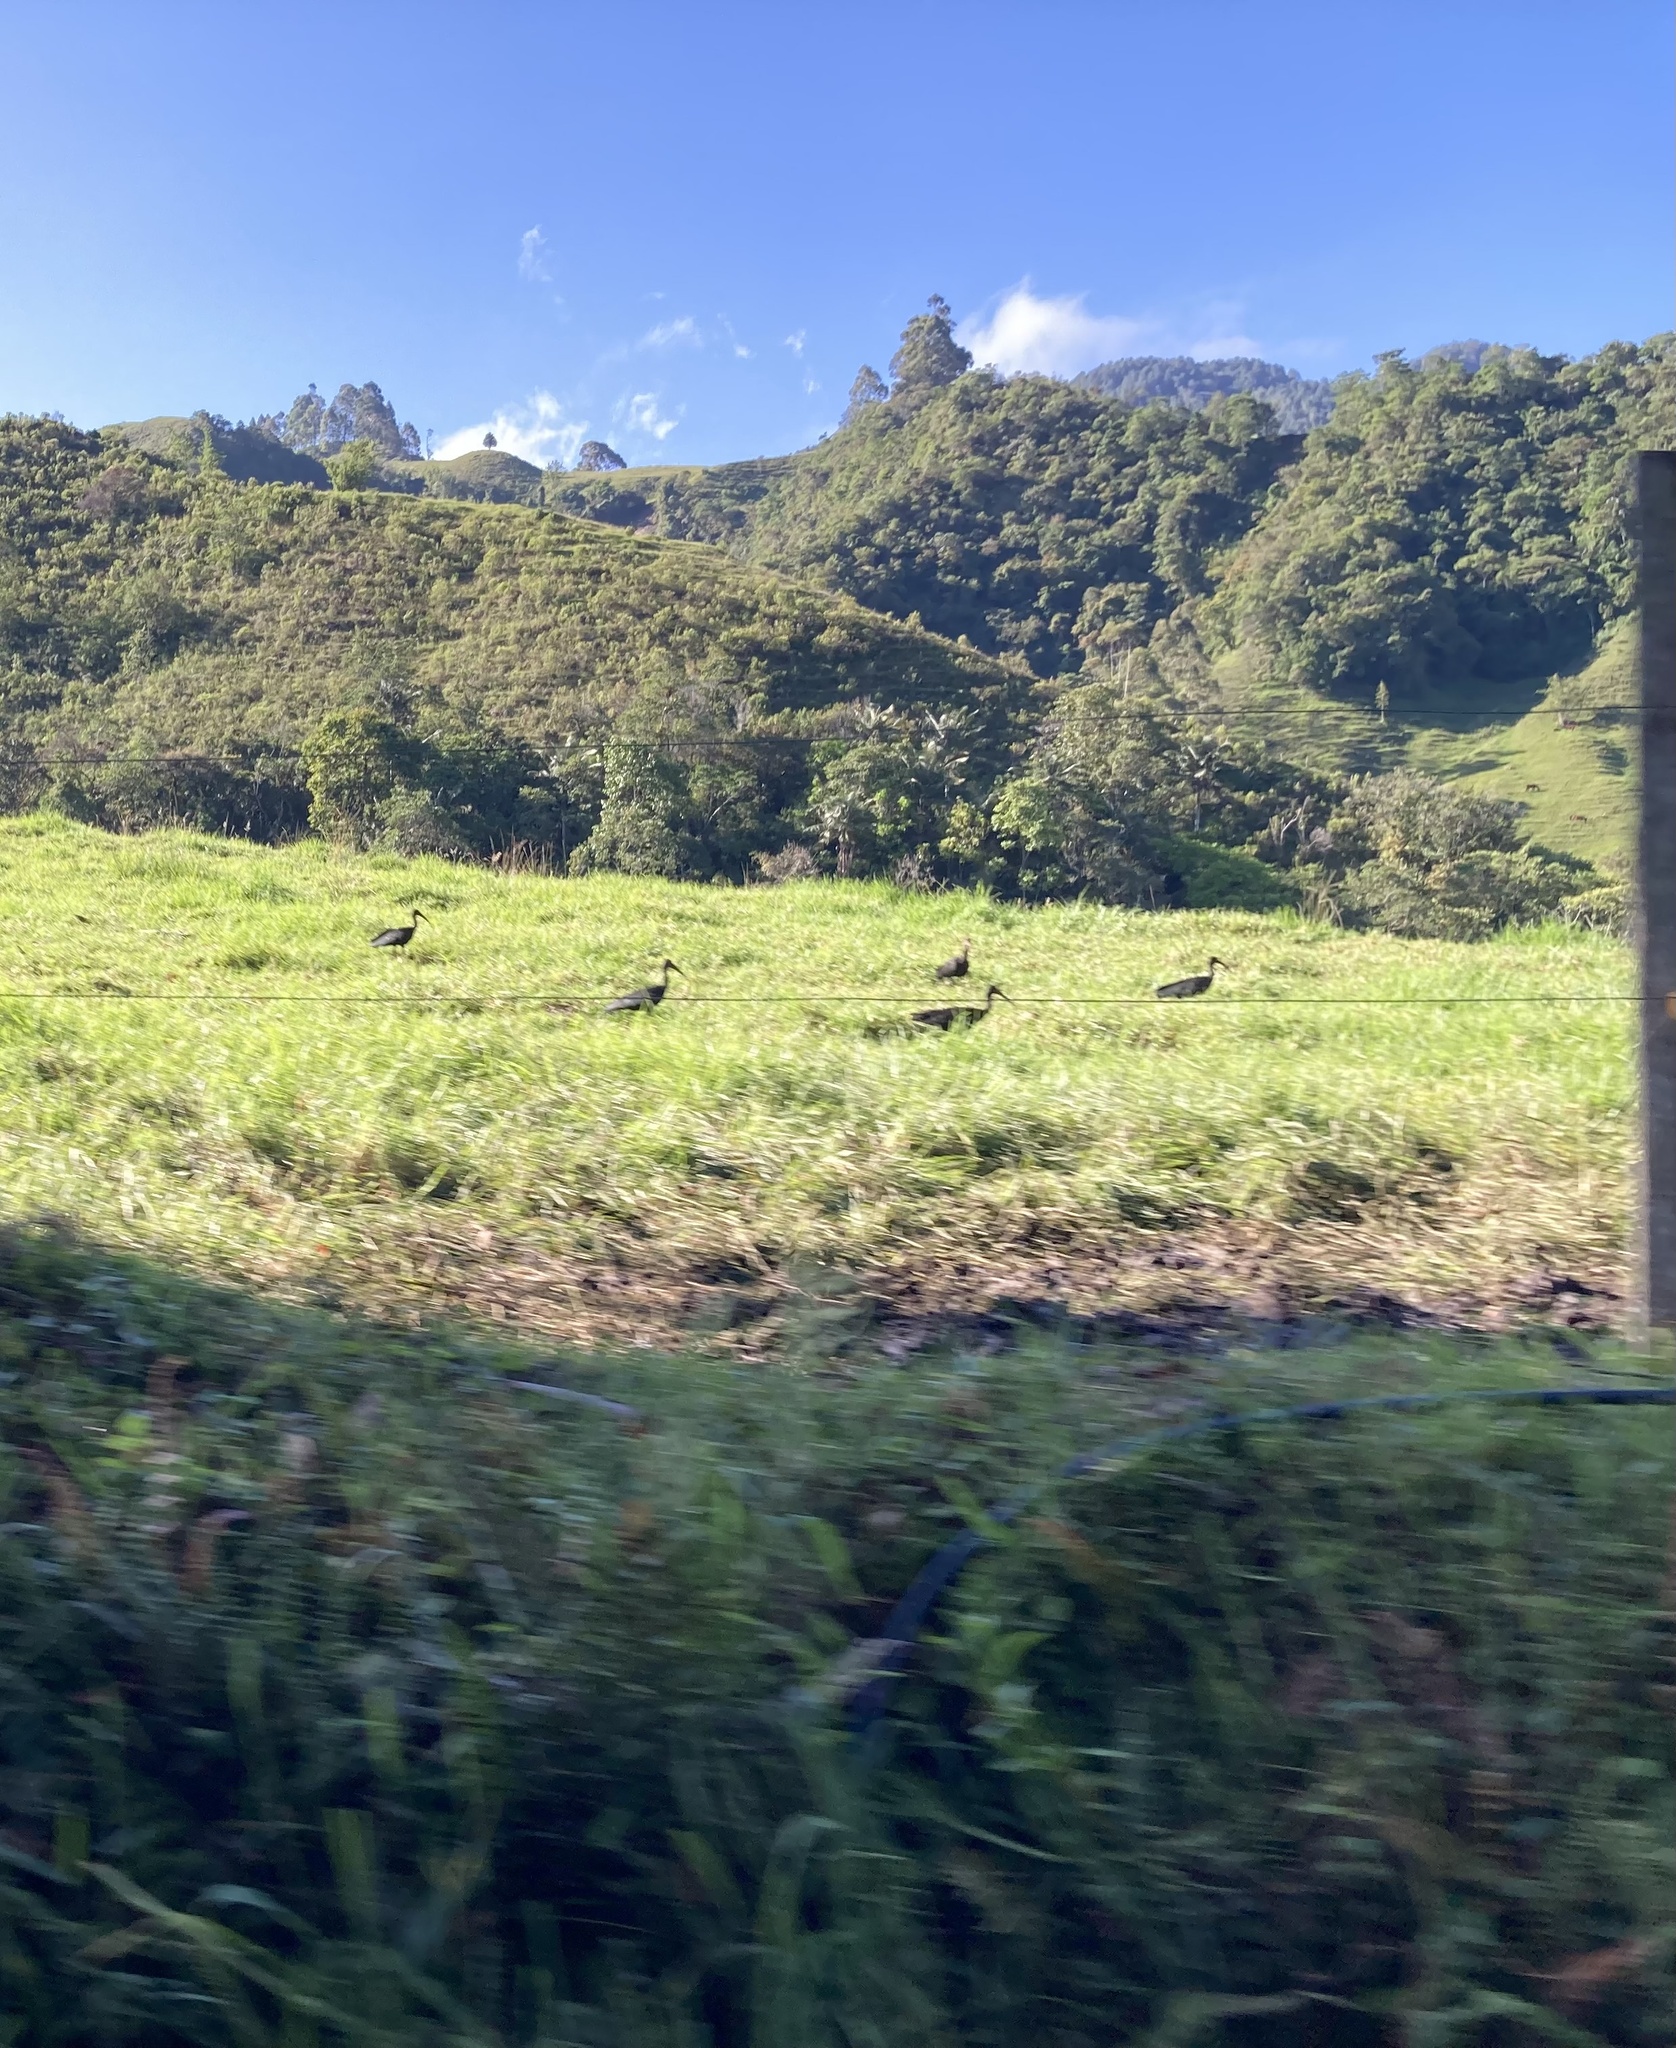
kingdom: Animalia
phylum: Chordata
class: Aves
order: Pelecaniformes
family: Threskiornithidae
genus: Phimosus
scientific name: Phimosus infuscatus
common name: Bare-faced ibis
